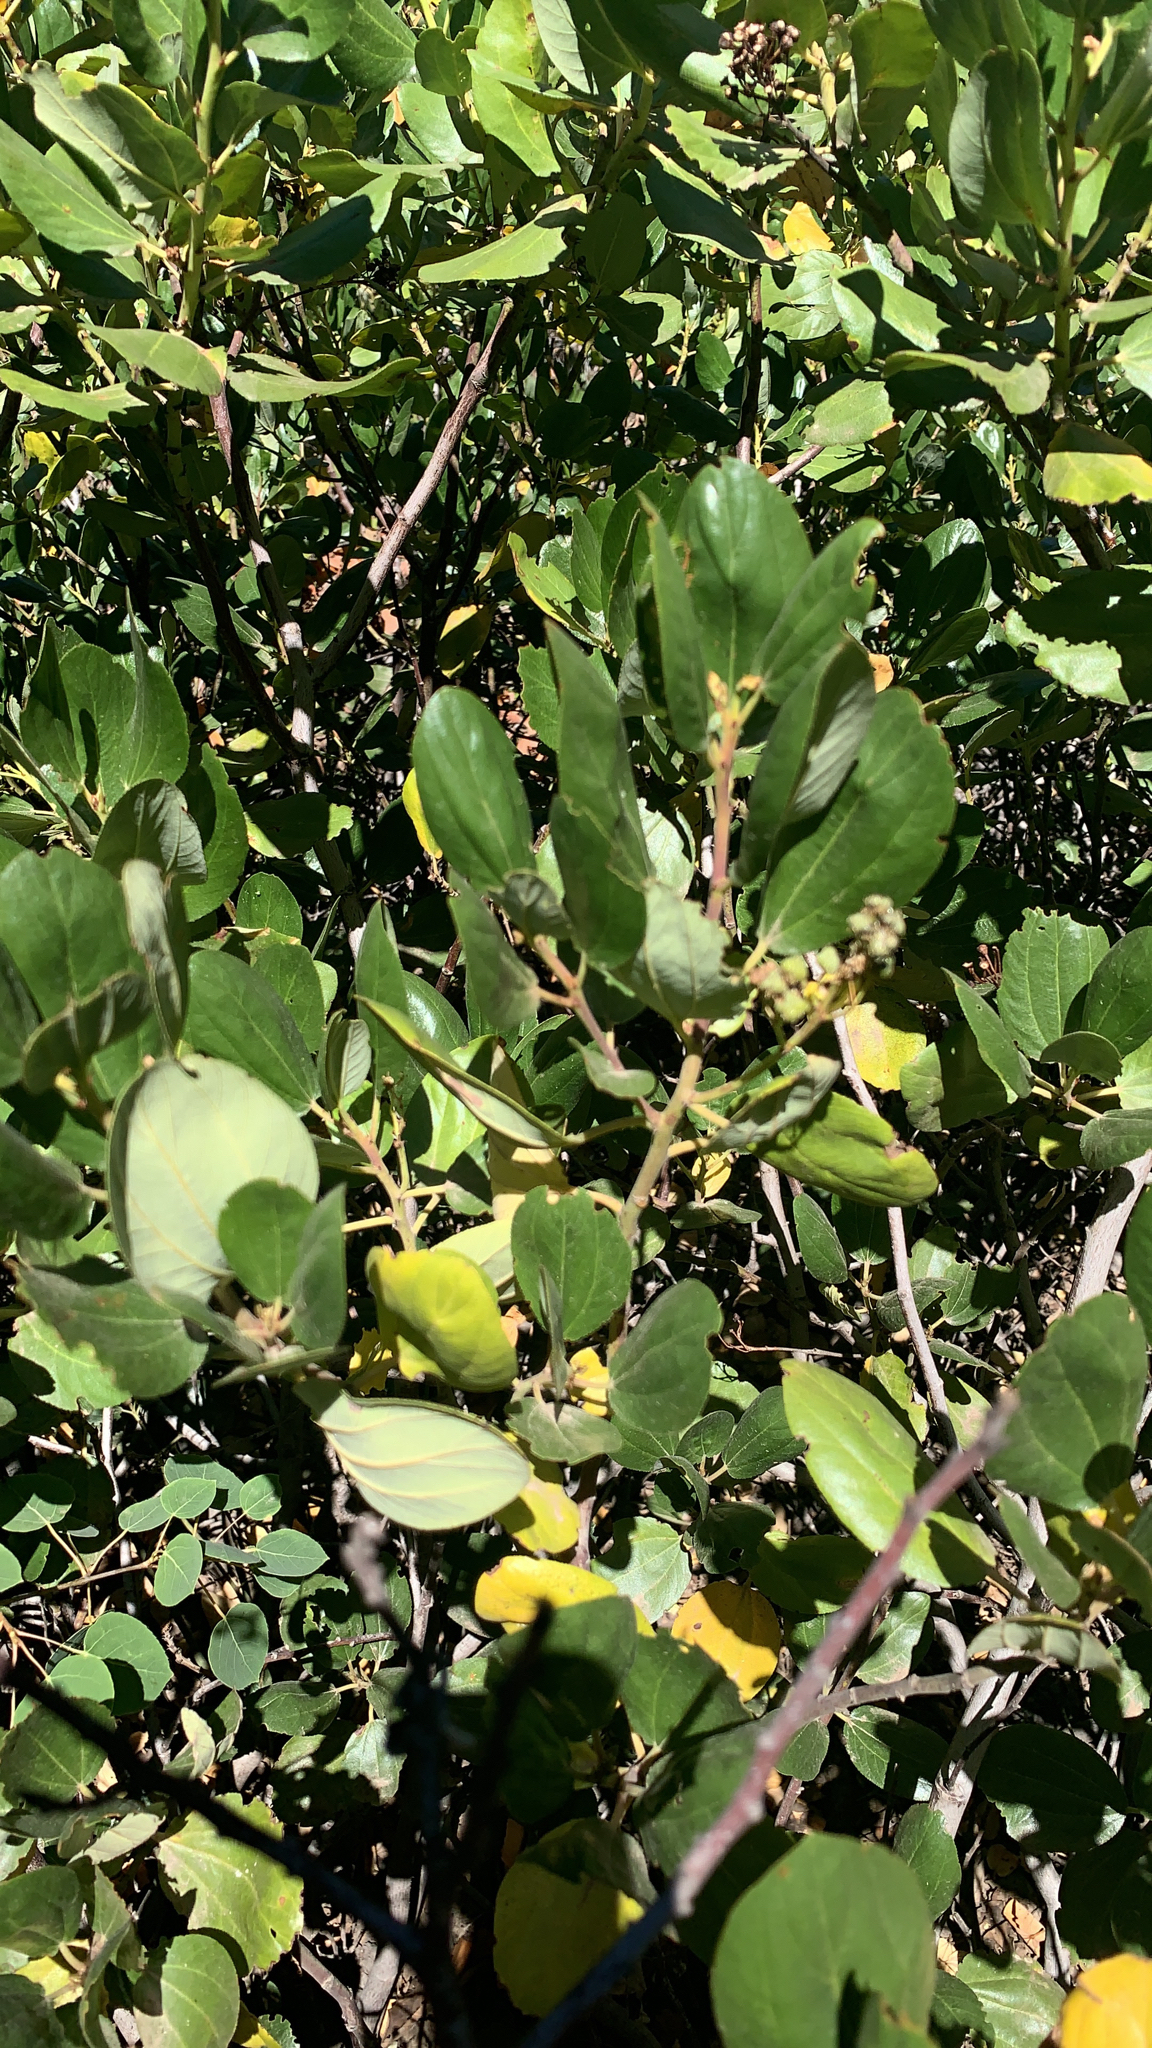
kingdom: Plantae
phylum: Tracheophyta
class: Magnoliopsida
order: Rosales
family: Rhamnaceae
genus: Ceanothus
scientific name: Ceanothus velutinus
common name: Snowbrush
